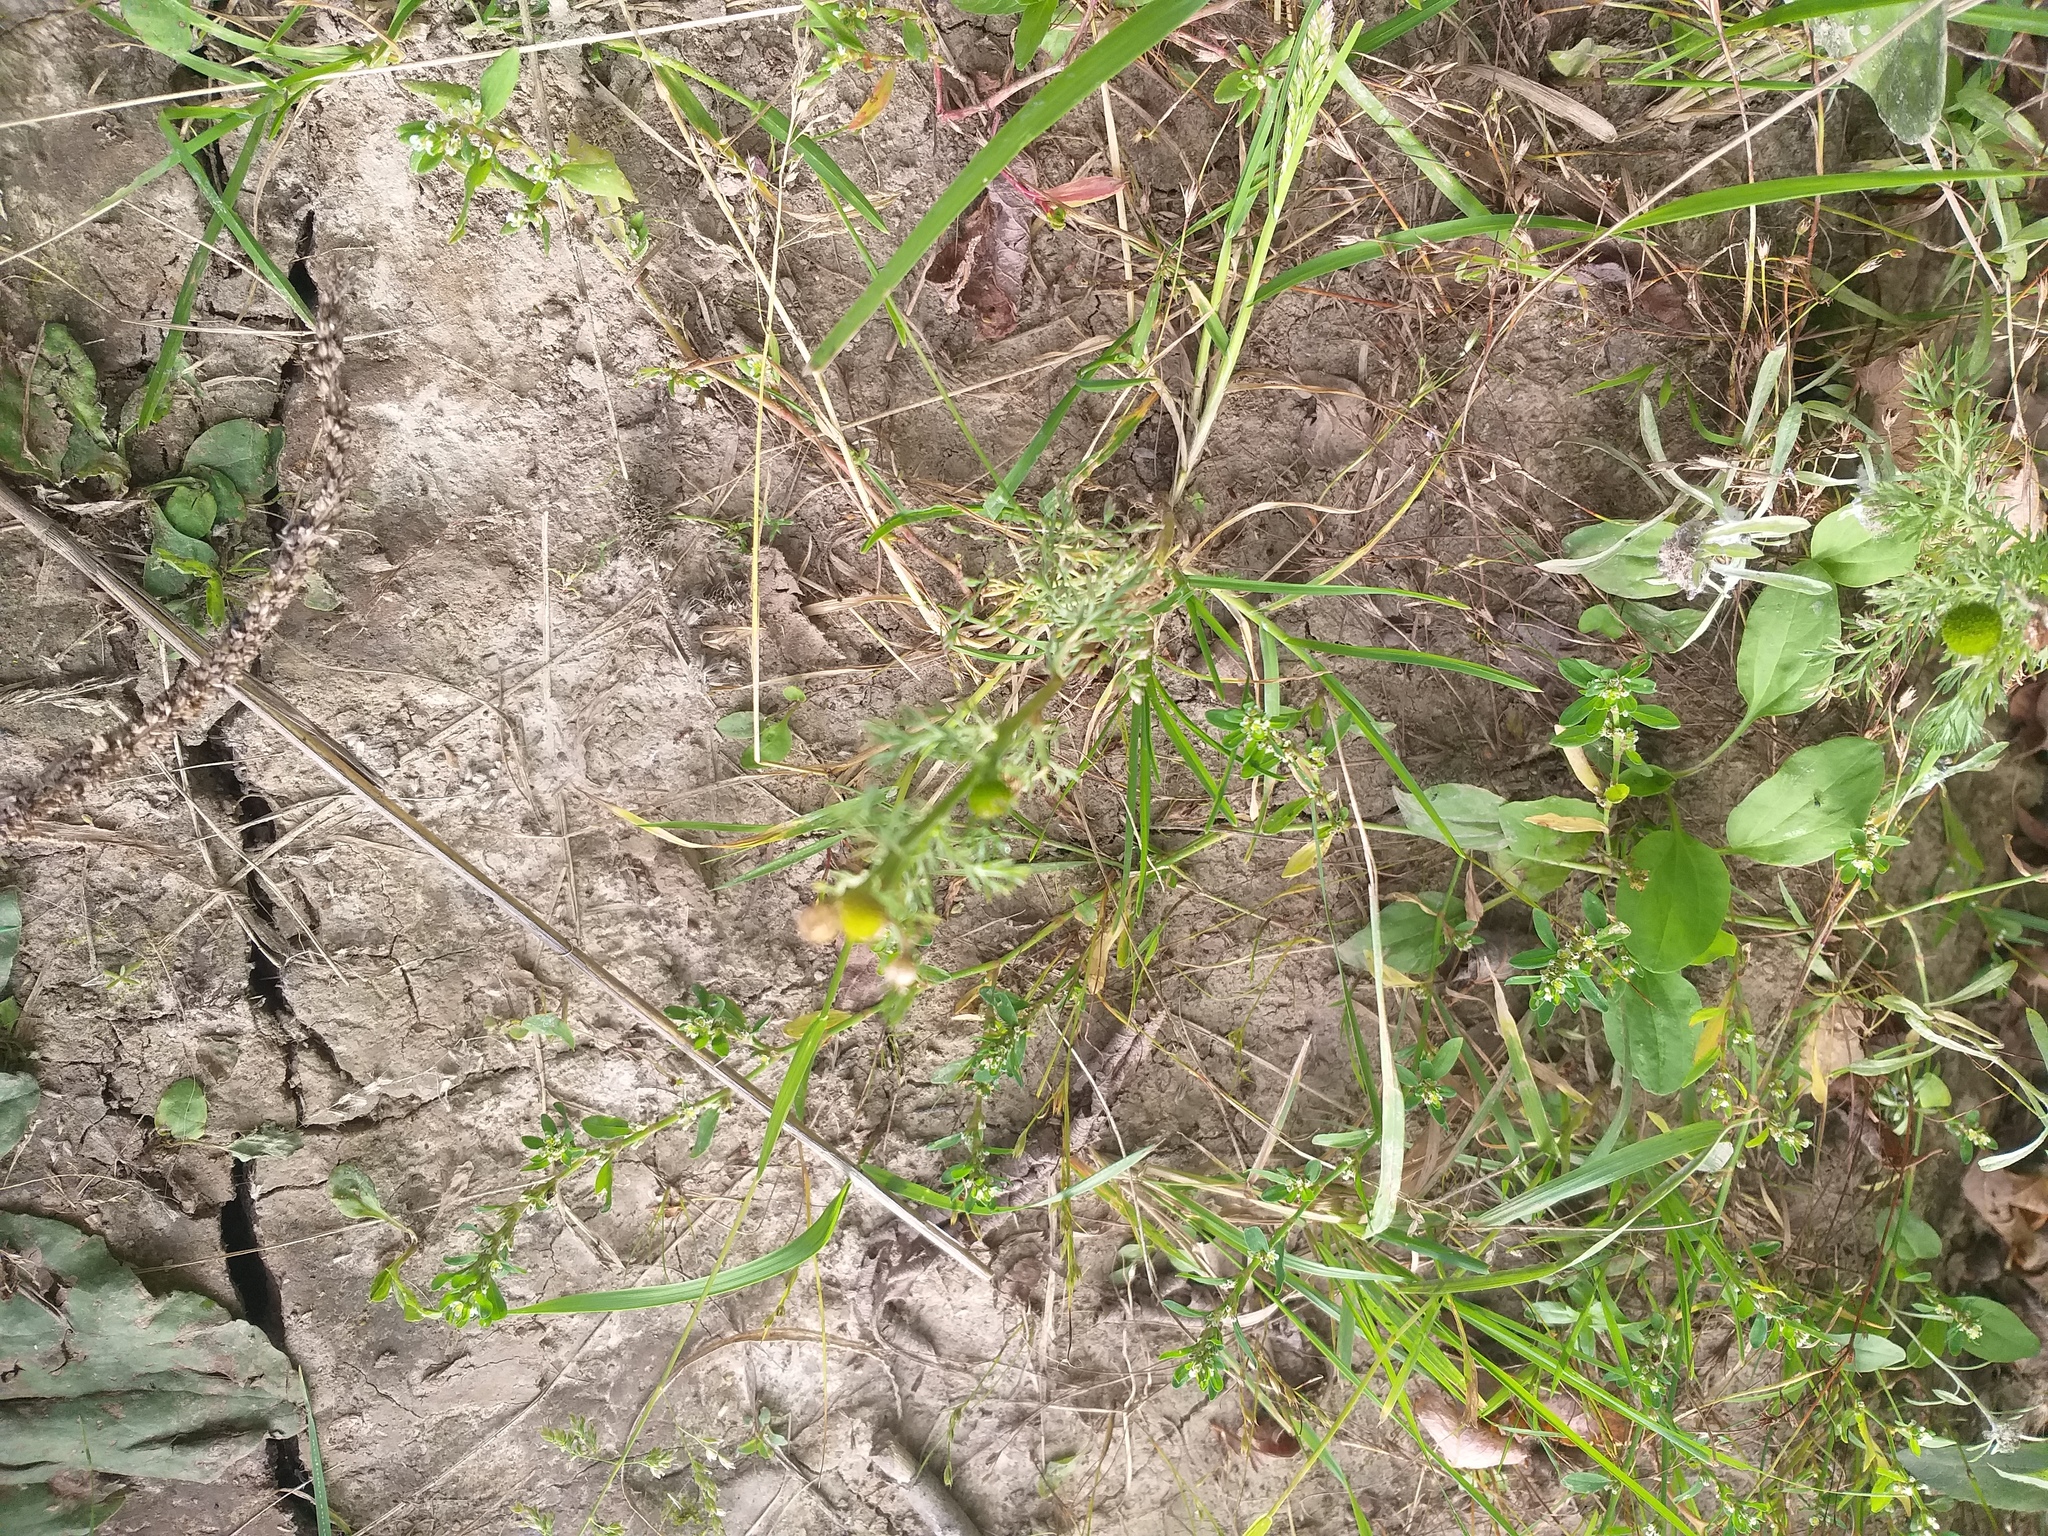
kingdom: Plantae
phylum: Tracheophyta
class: Magnoliopsida
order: Asterales
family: Asteraceae
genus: Matricaria
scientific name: Matricaria discoidea
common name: Disc mayweed
